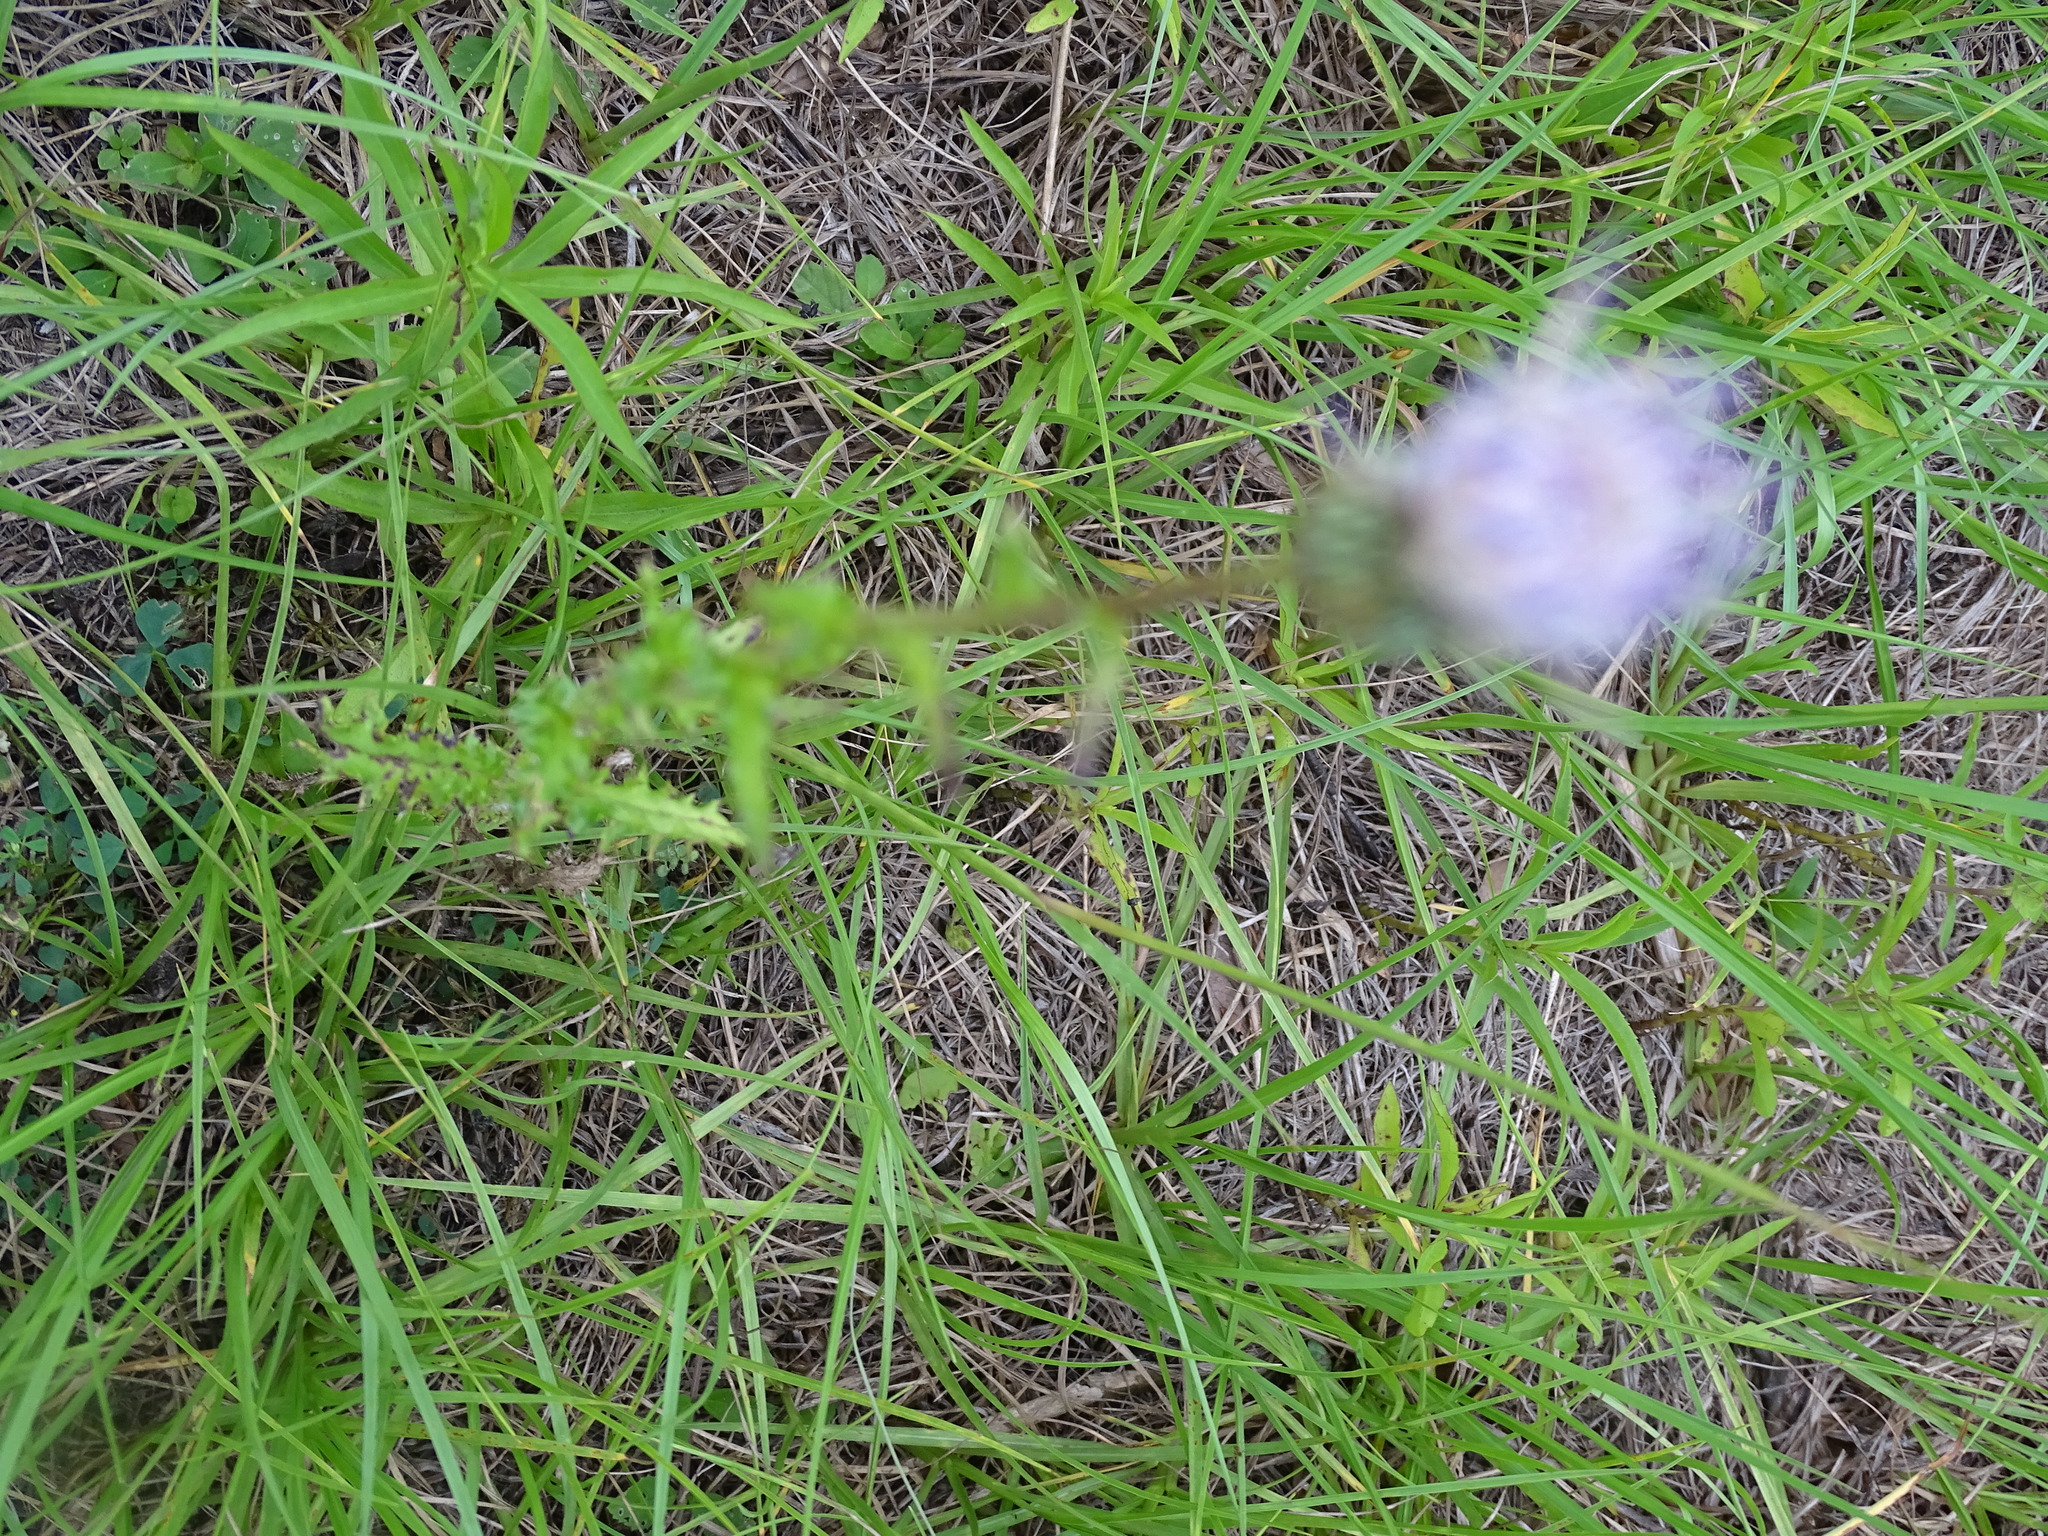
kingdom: Plantae
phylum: Tracheophyta
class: Magnoliopsida
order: Asterales
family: Asteraceae
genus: Cirsium
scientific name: Cirsium nuttalii
